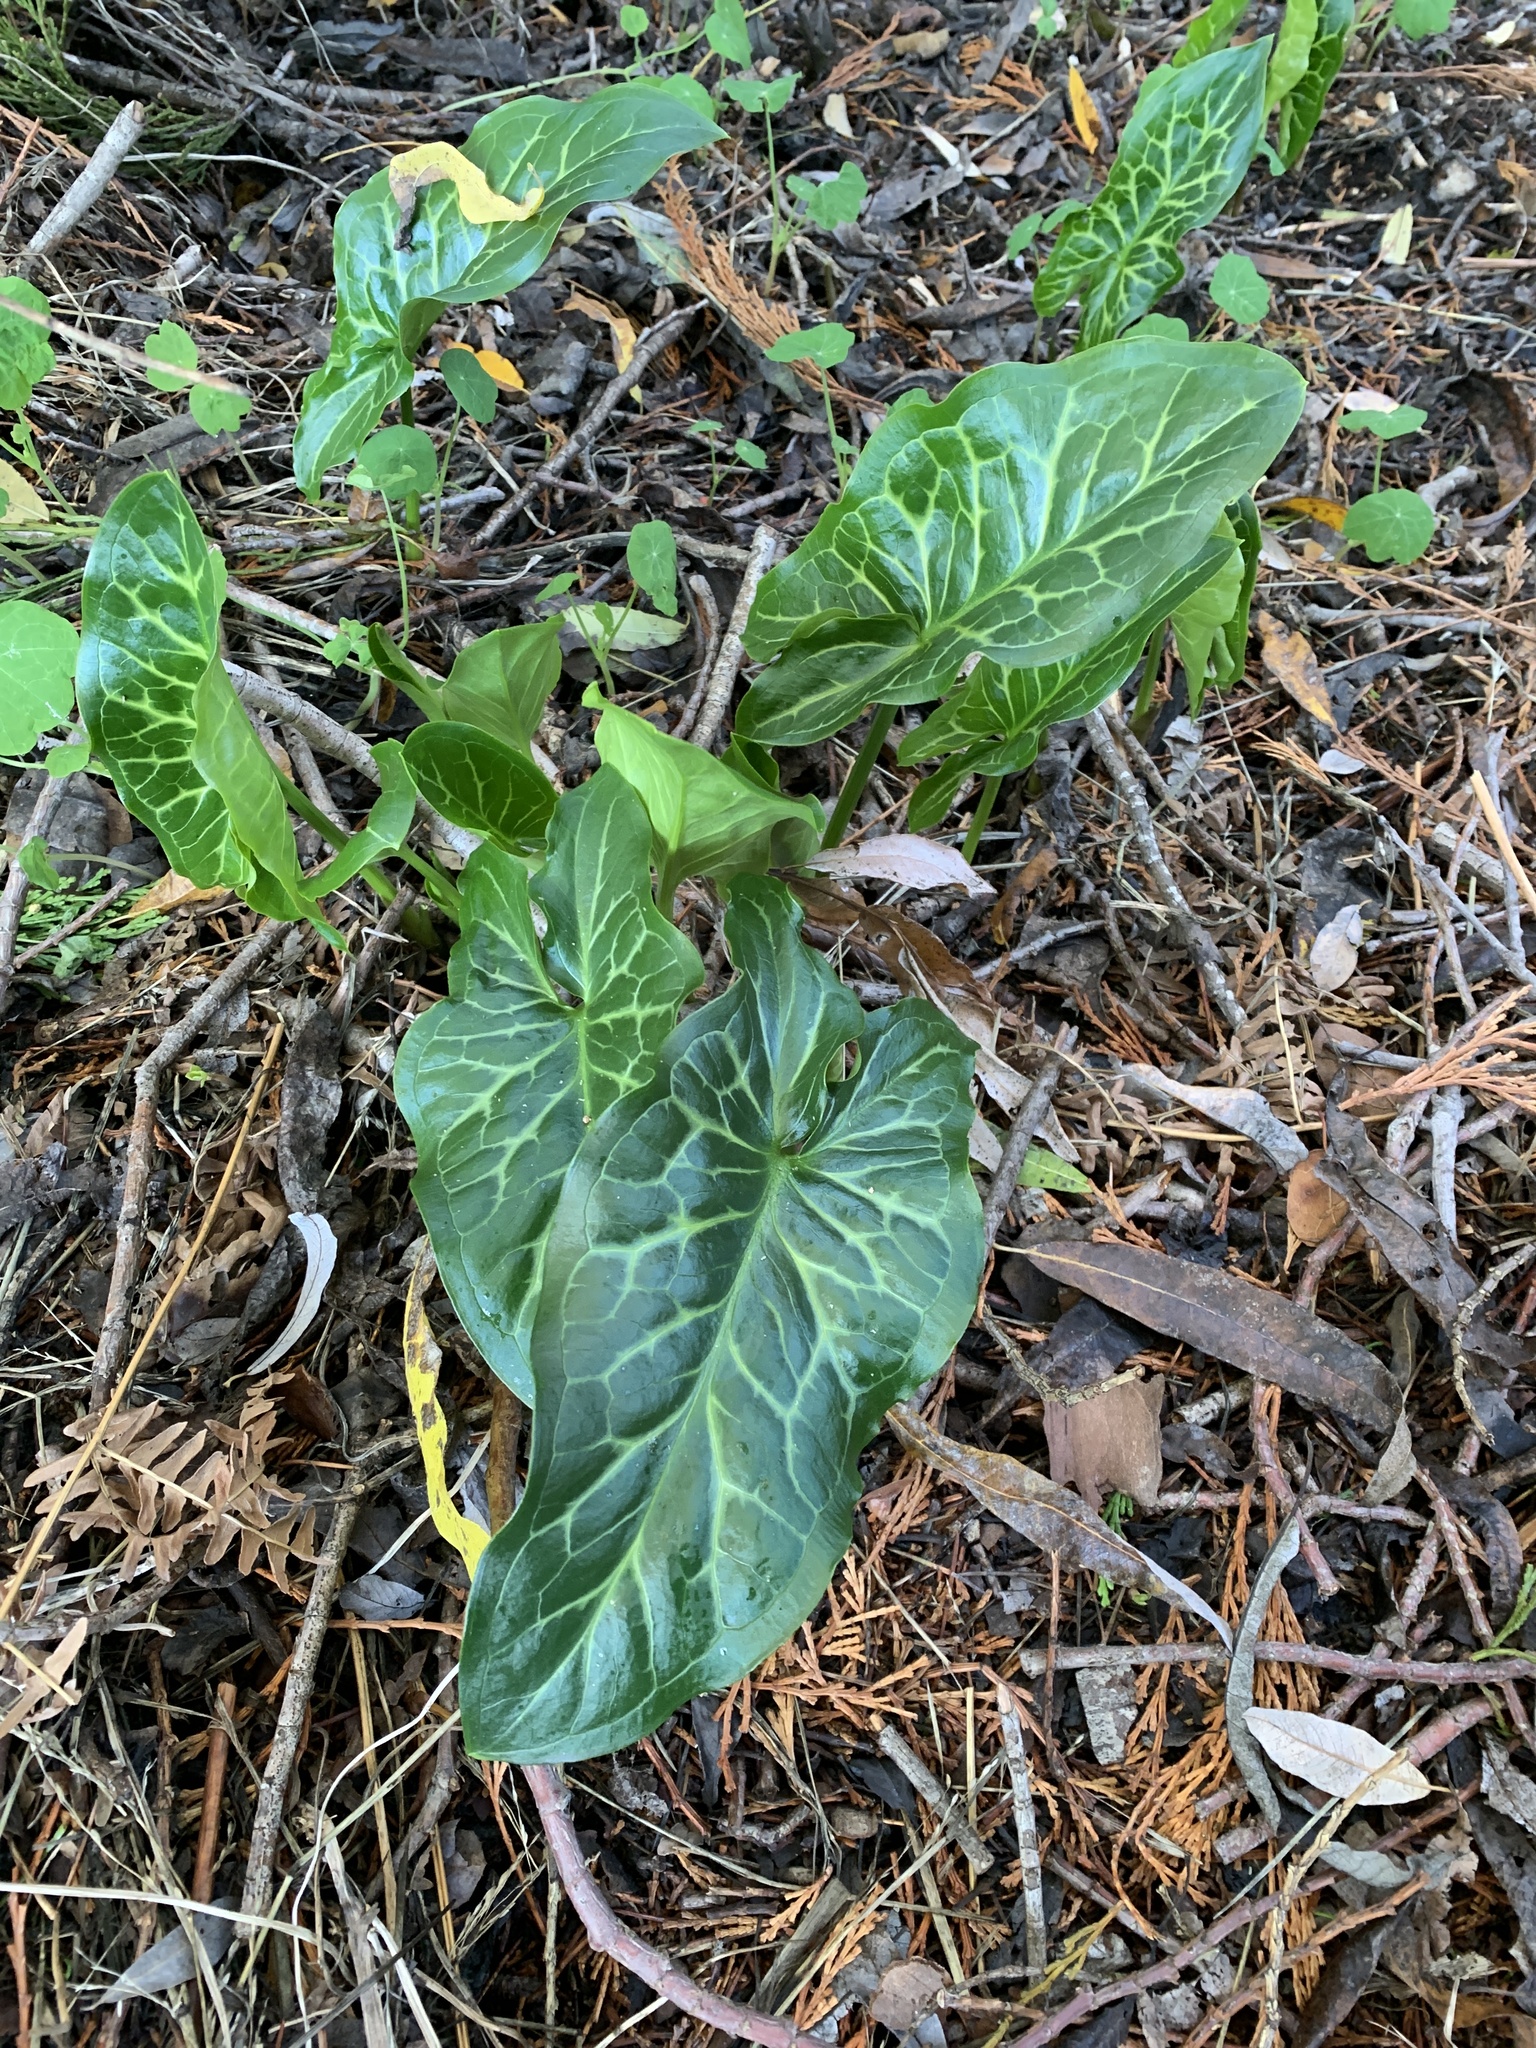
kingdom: Plantae
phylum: Tracheophyta
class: Liliopsida
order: Alismatales
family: Araceae
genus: Arum
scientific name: Arum italicum
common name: Italian lords-and-ladies
